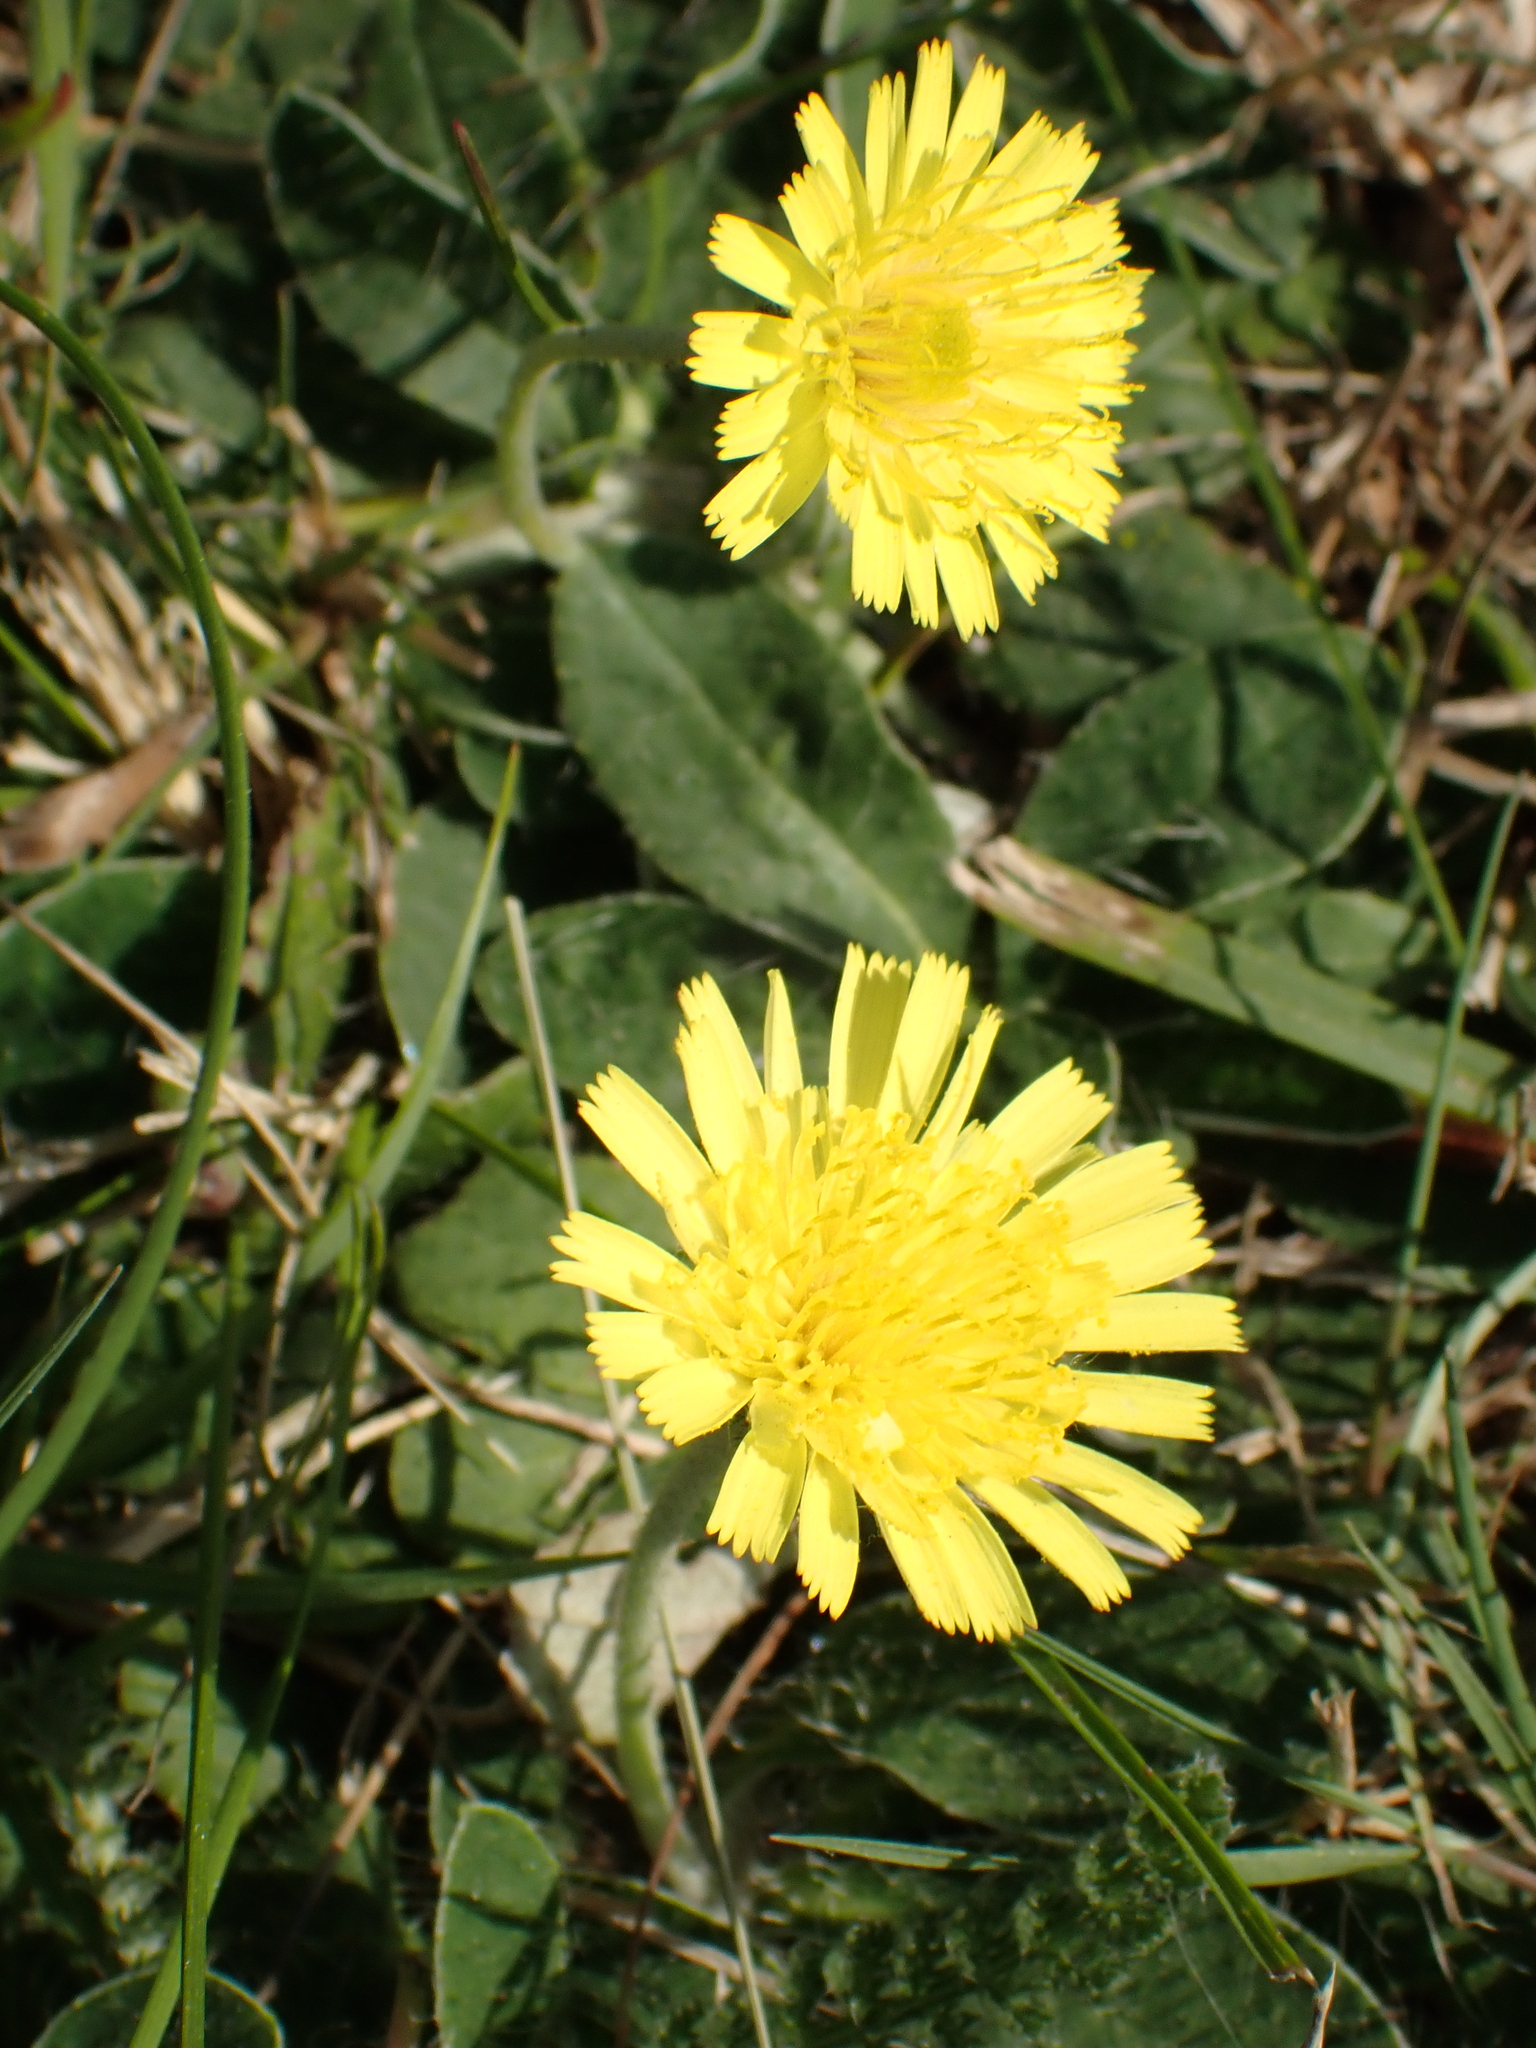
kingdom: Plantae
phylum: Tracheophyta
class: Magnoliopsida
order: Asterales
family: Asteraceae
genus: Pilosella
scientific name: Pilosella officinarum
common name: Mouse-ear hawkweed
